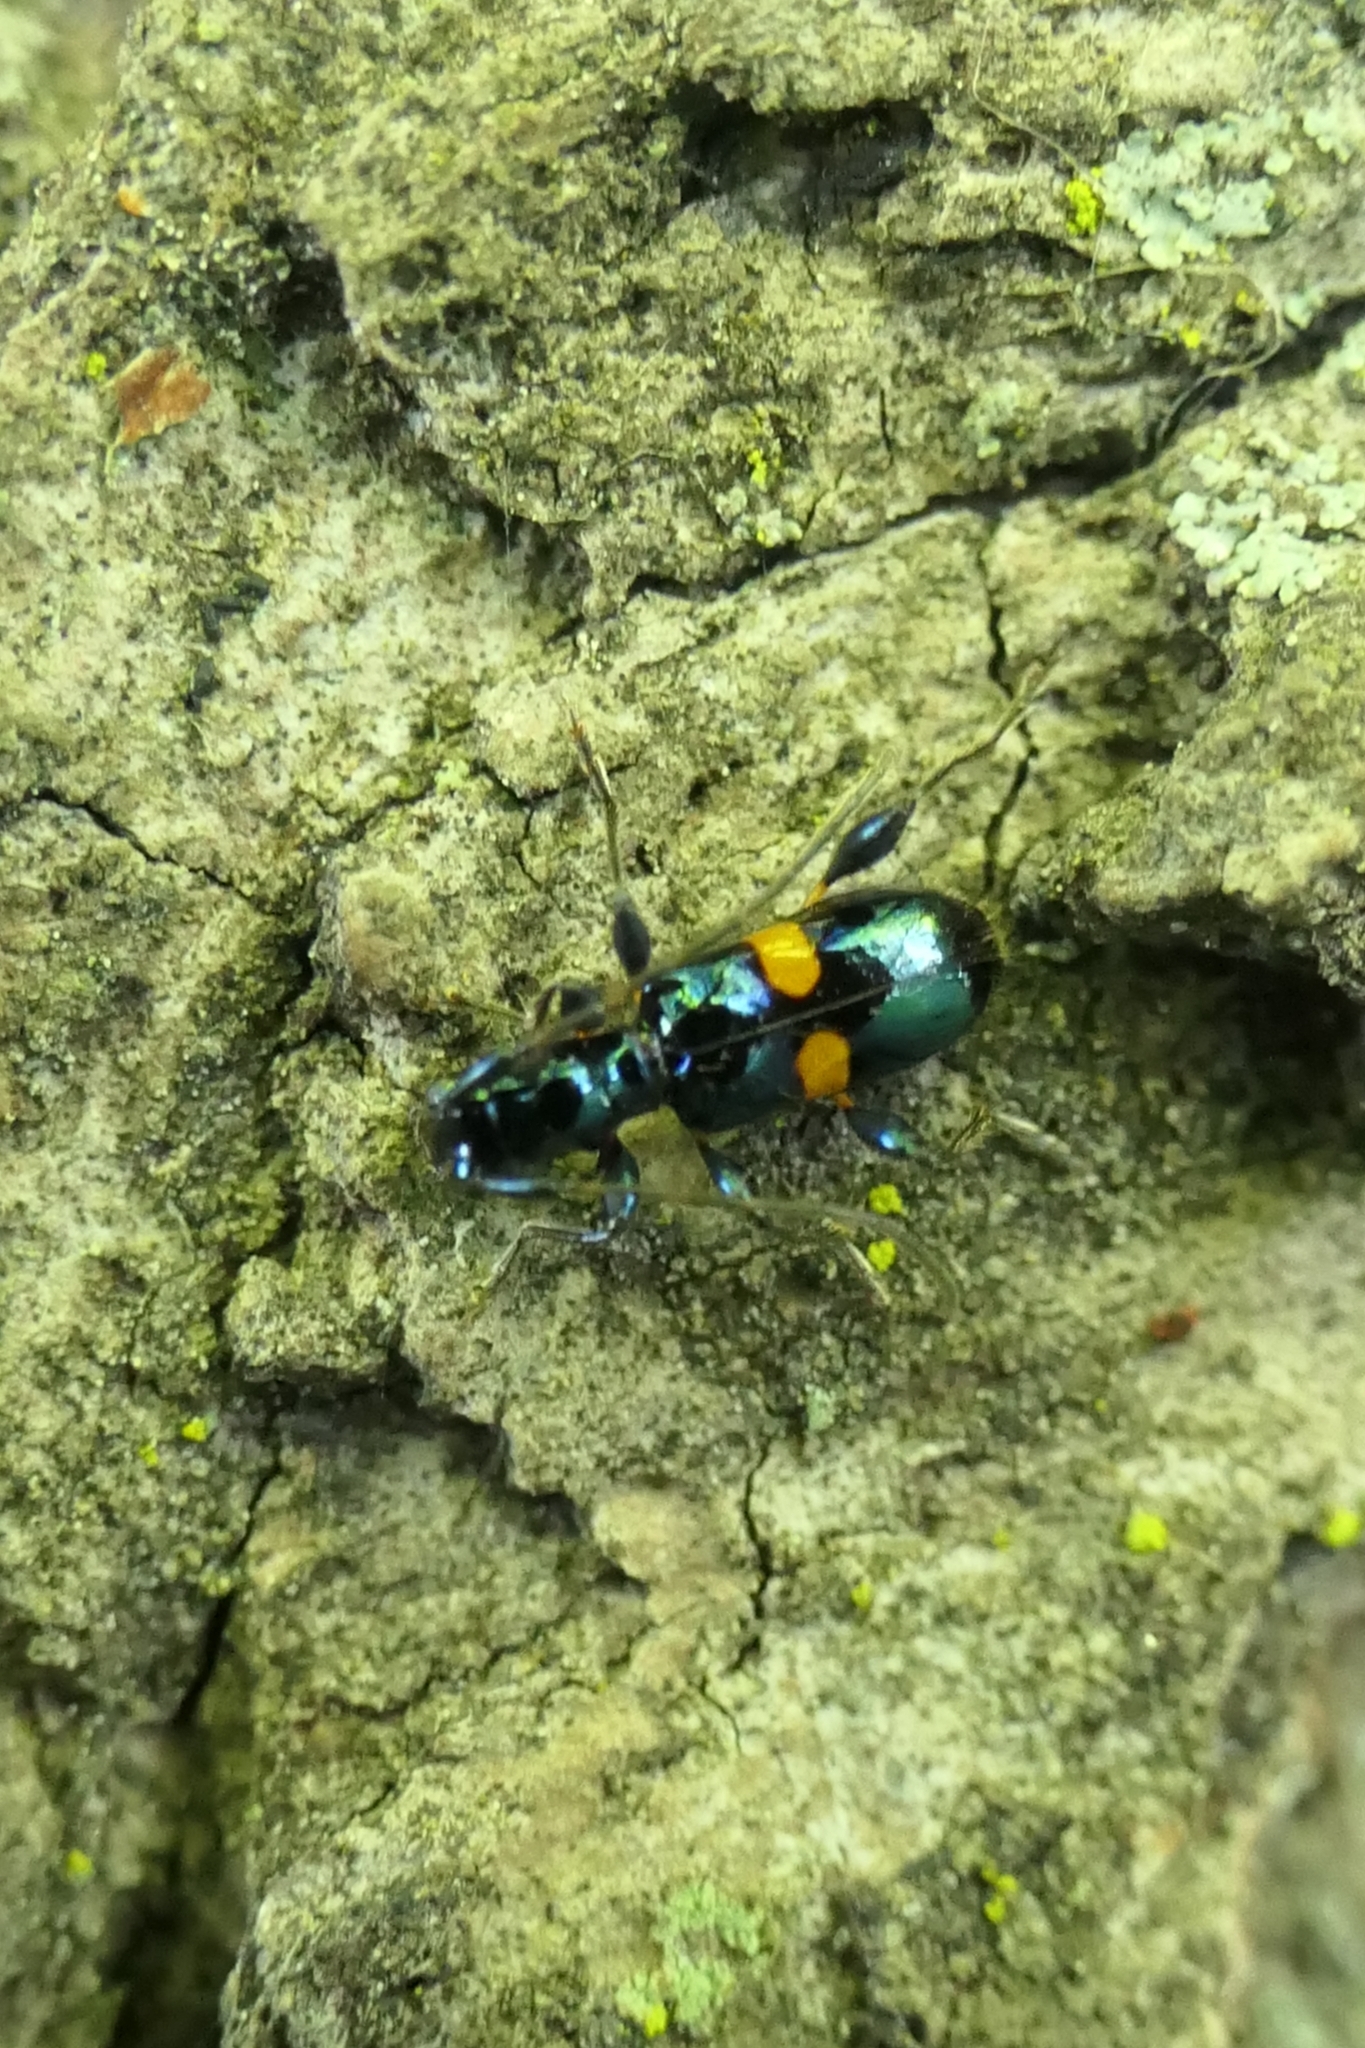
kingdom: Animalia
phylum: Arthropoda
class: Insecta
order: Coleoptera
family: Cerambycidae
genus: Zorion
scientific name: Zorion guttigerum
